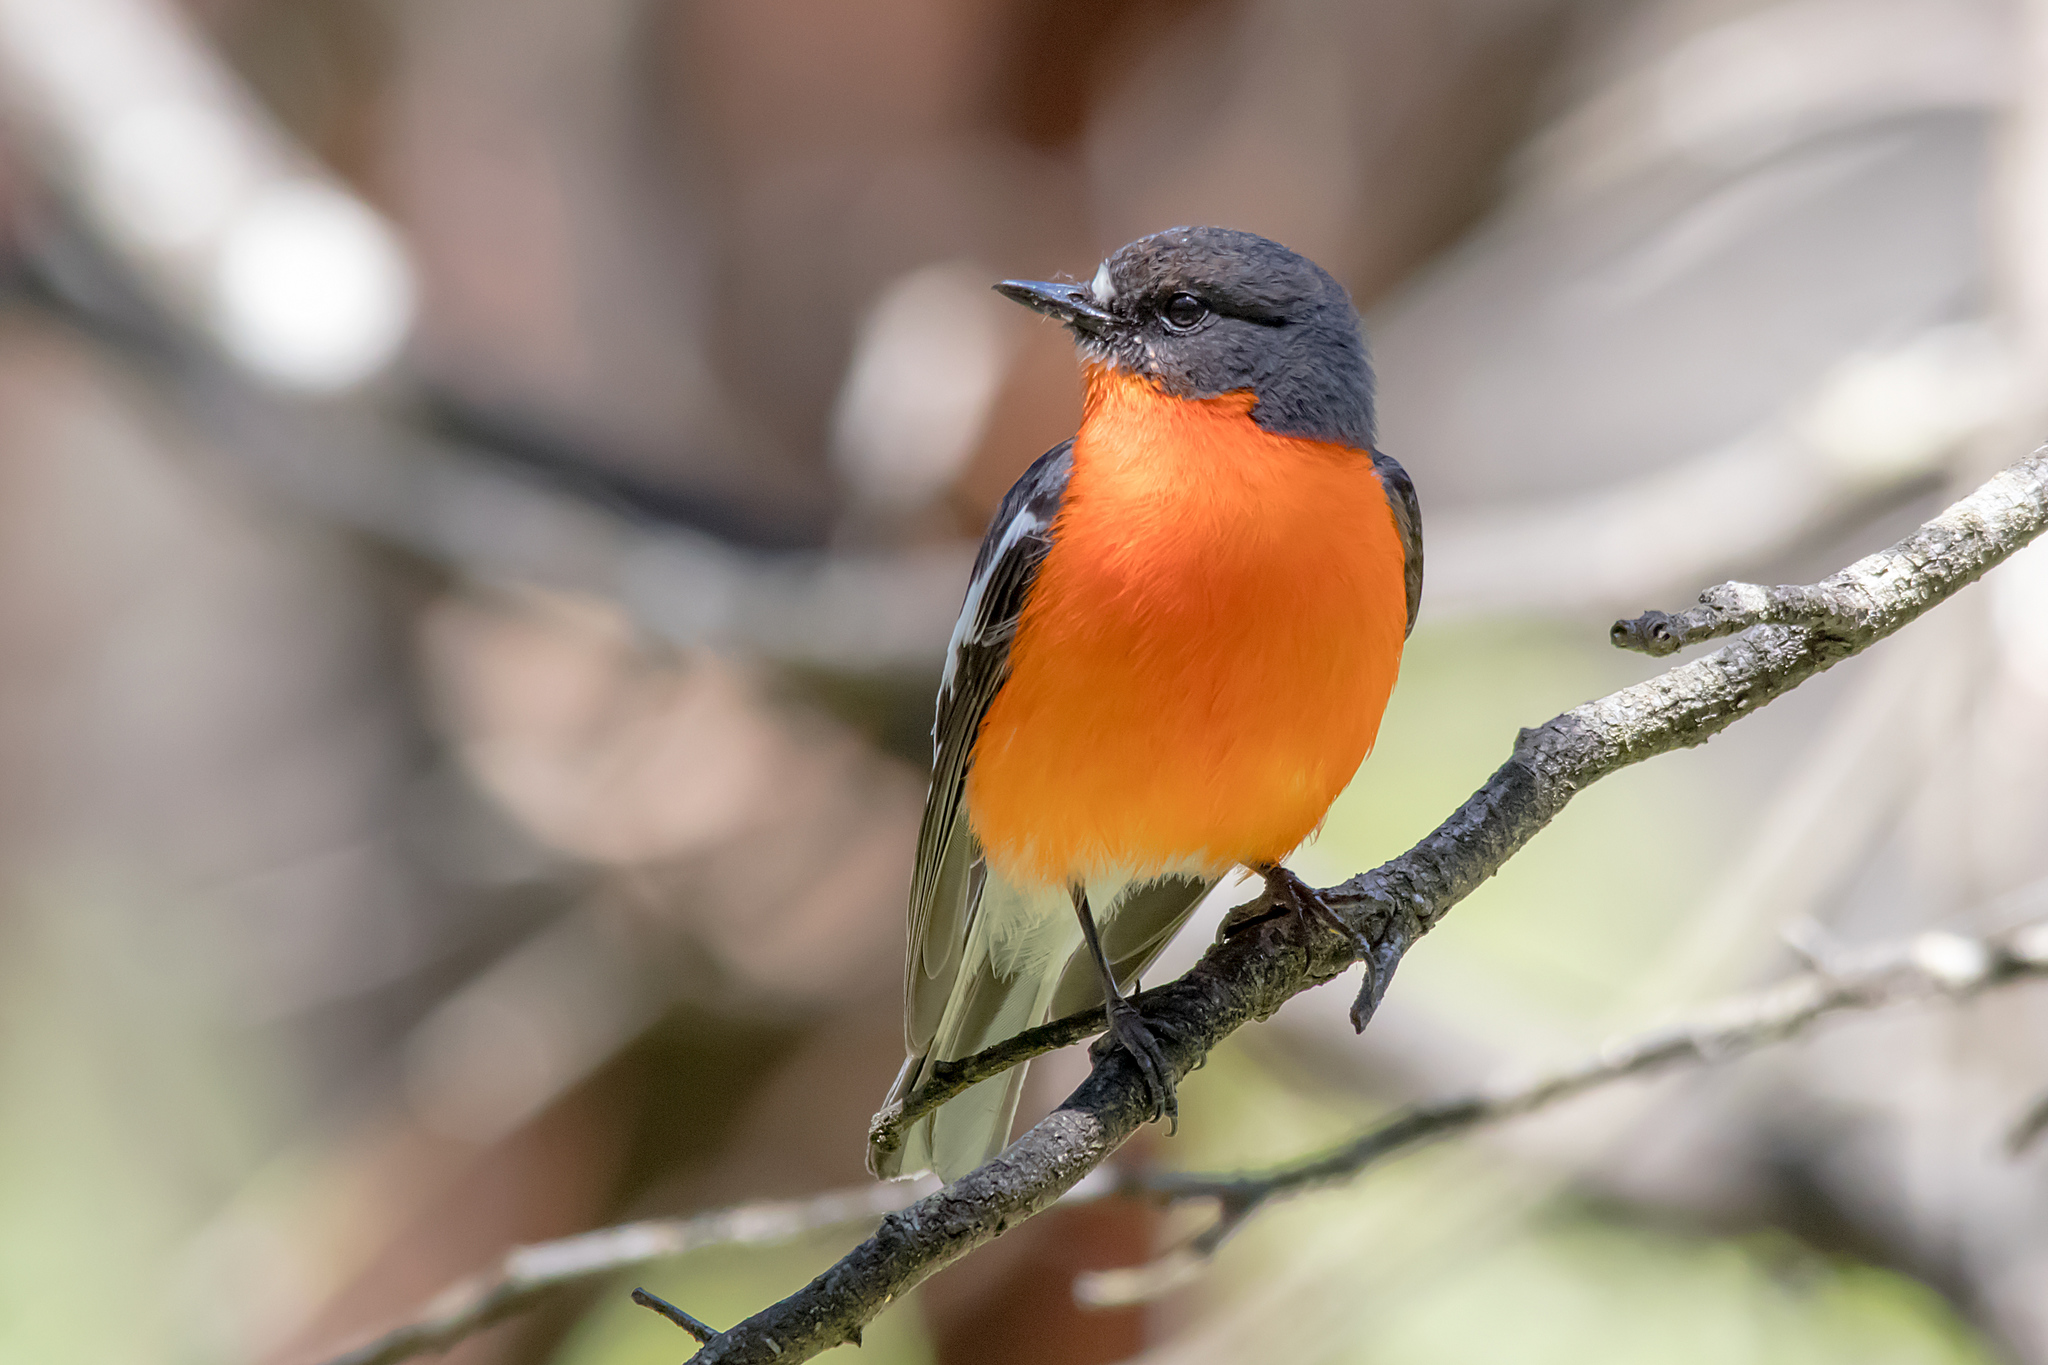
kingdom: Animalia
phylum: Chordata
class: Aves
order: Passeriformes
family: Petroicidae
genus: Petroica
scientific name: Petroica phoenicea
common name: Flame robin
